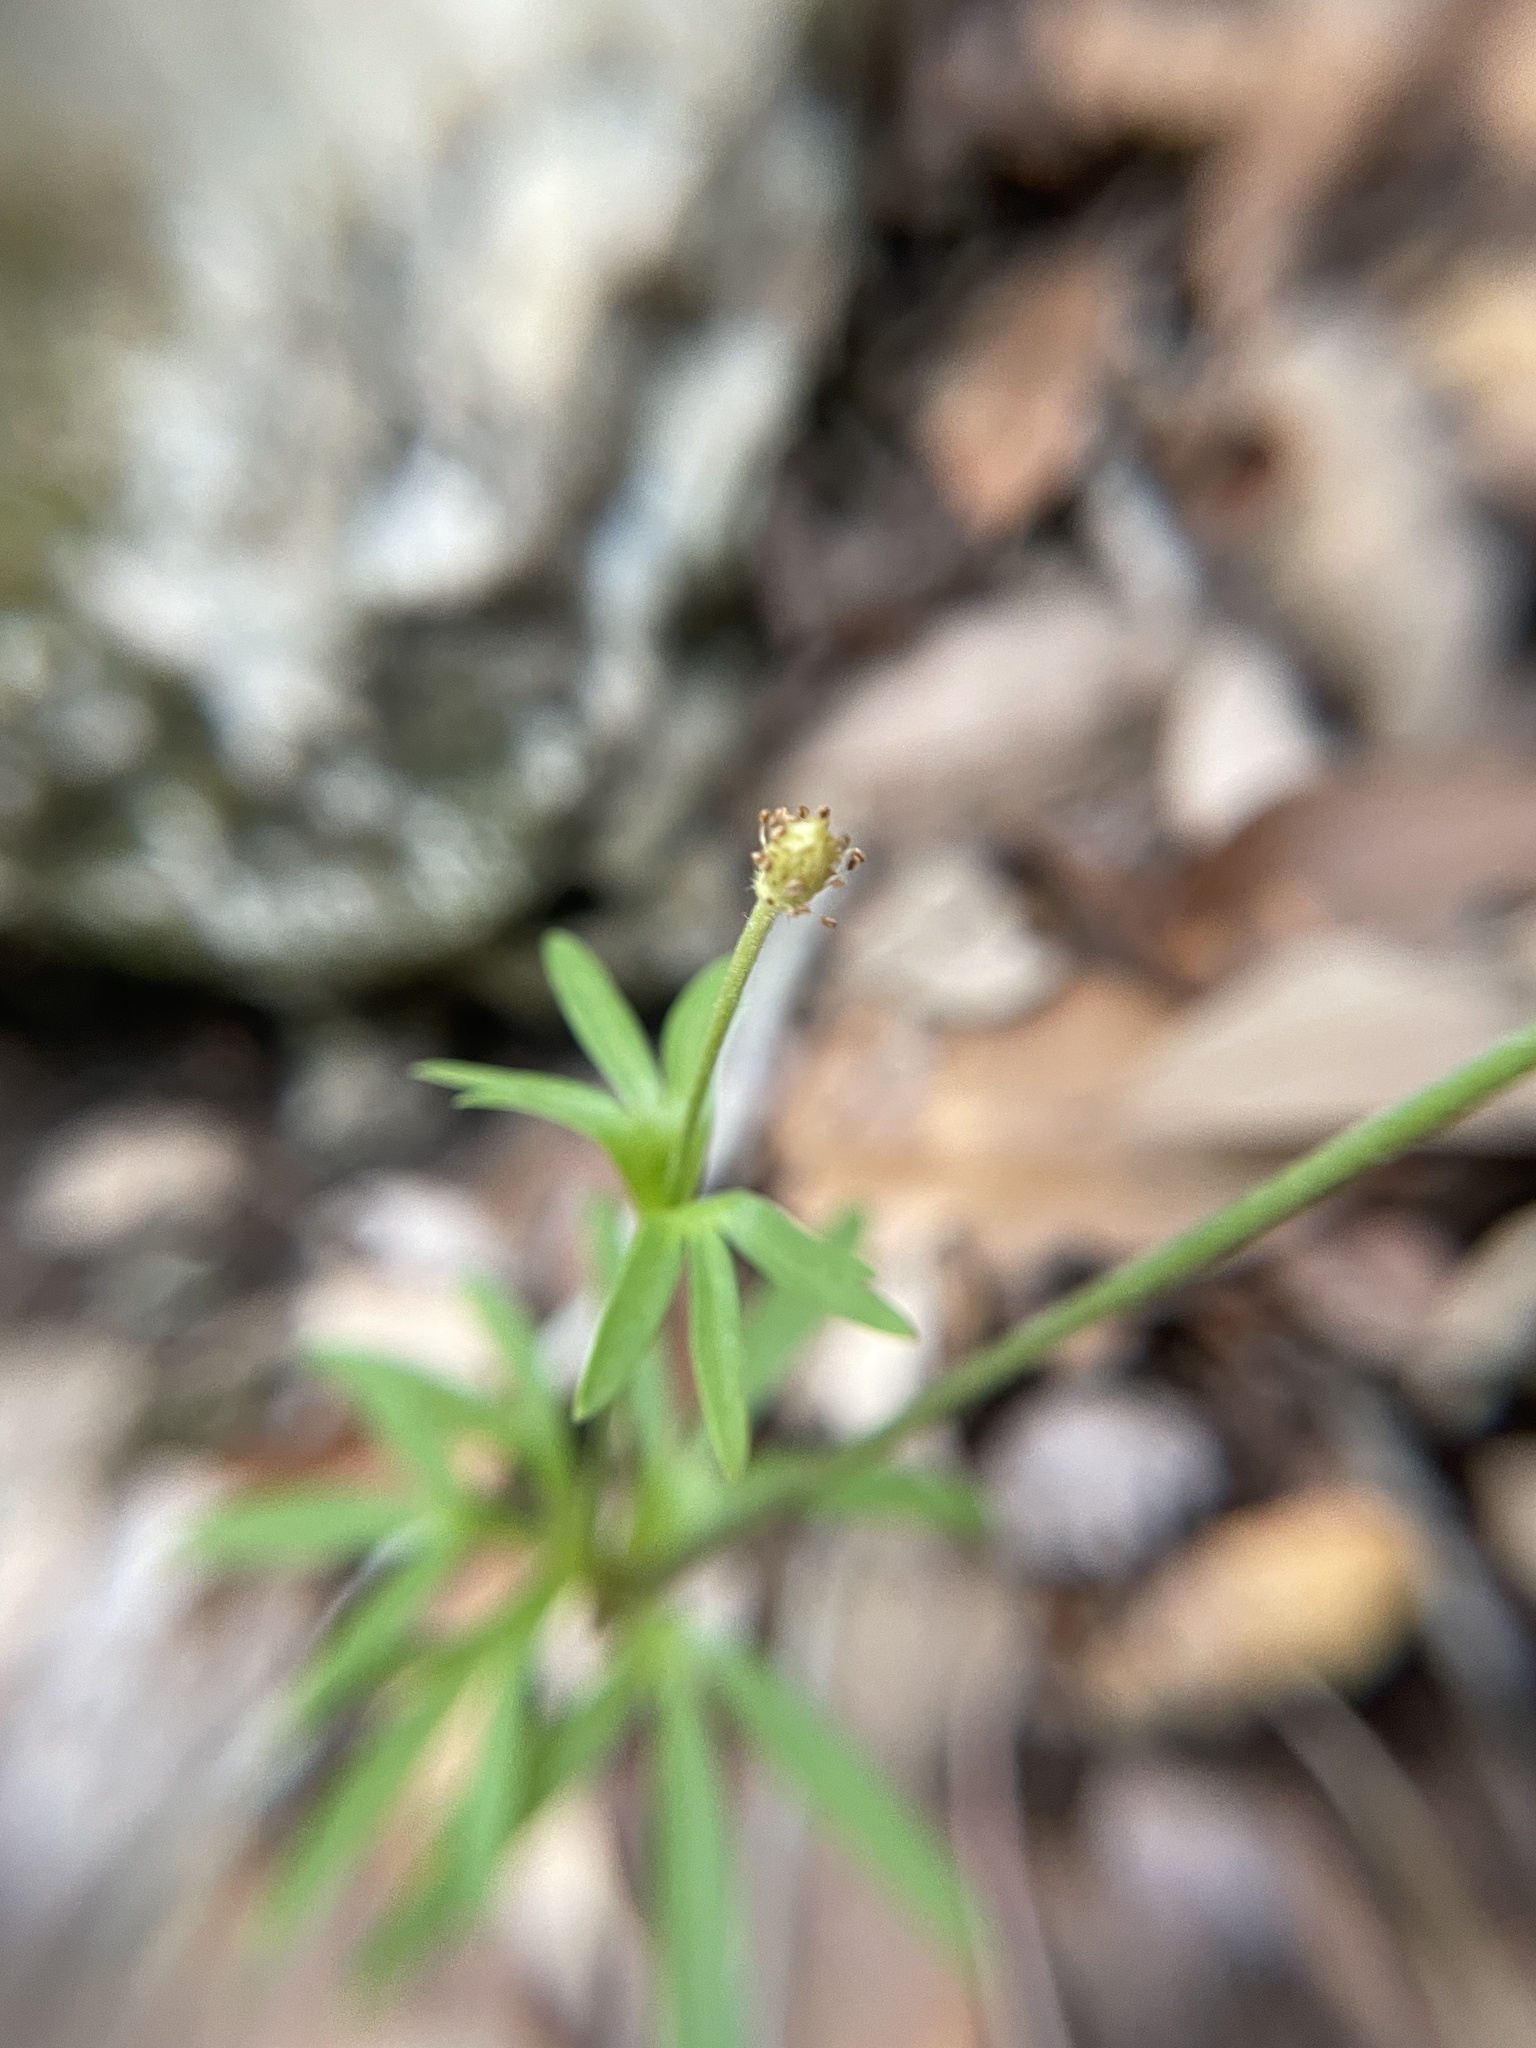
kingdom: Plantae
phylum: Tracheophyta
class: Magnoliopsida
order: Ranunculales
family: Ranunculaceae
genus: Anemone
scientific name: Anemone edwardsiana
